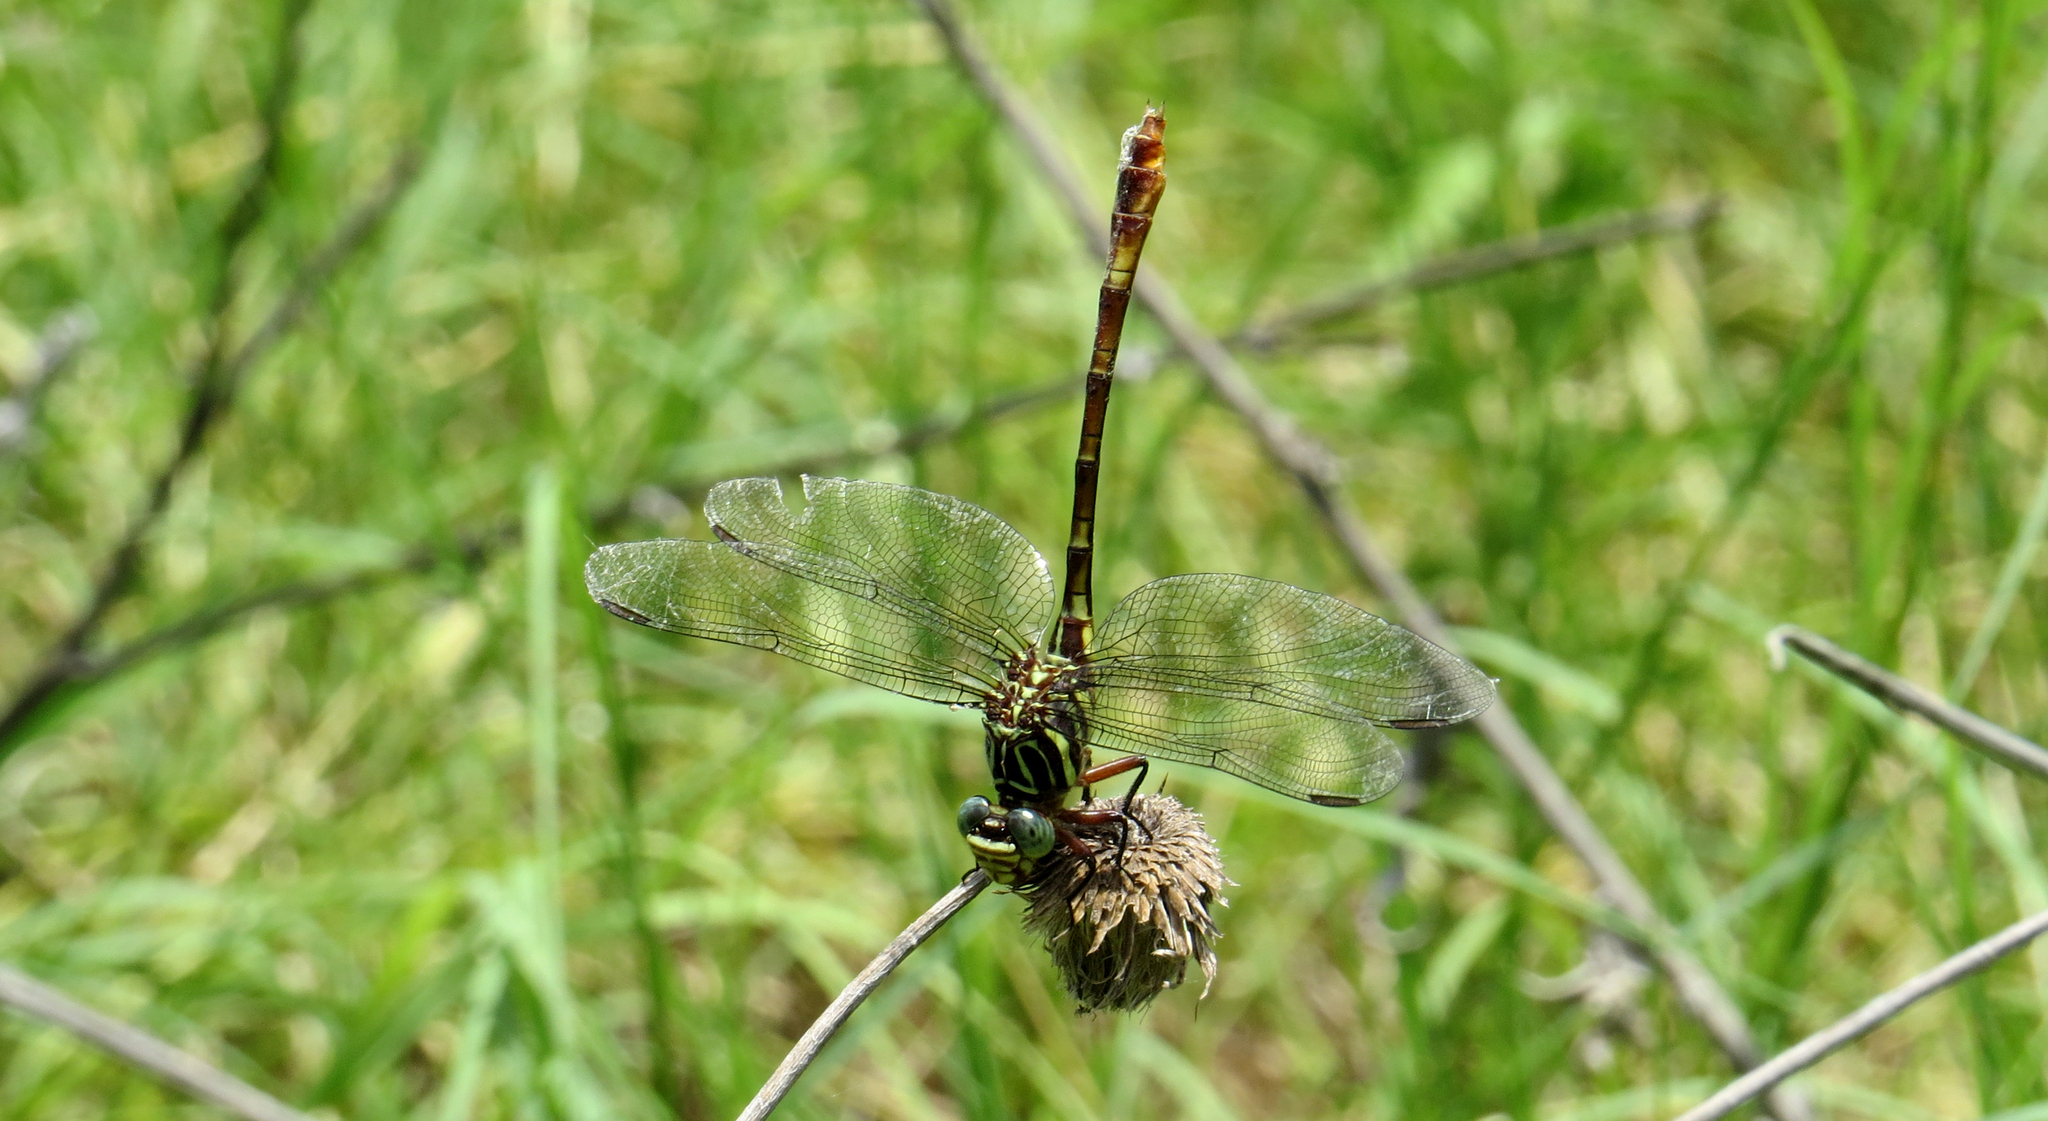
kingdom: Animalia
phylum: Arthropoda
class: Insecta
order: Odonata
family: Gomphidae
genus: Aphylla
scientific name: Aphylla angustifolia
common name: Broad-striped forceptail
